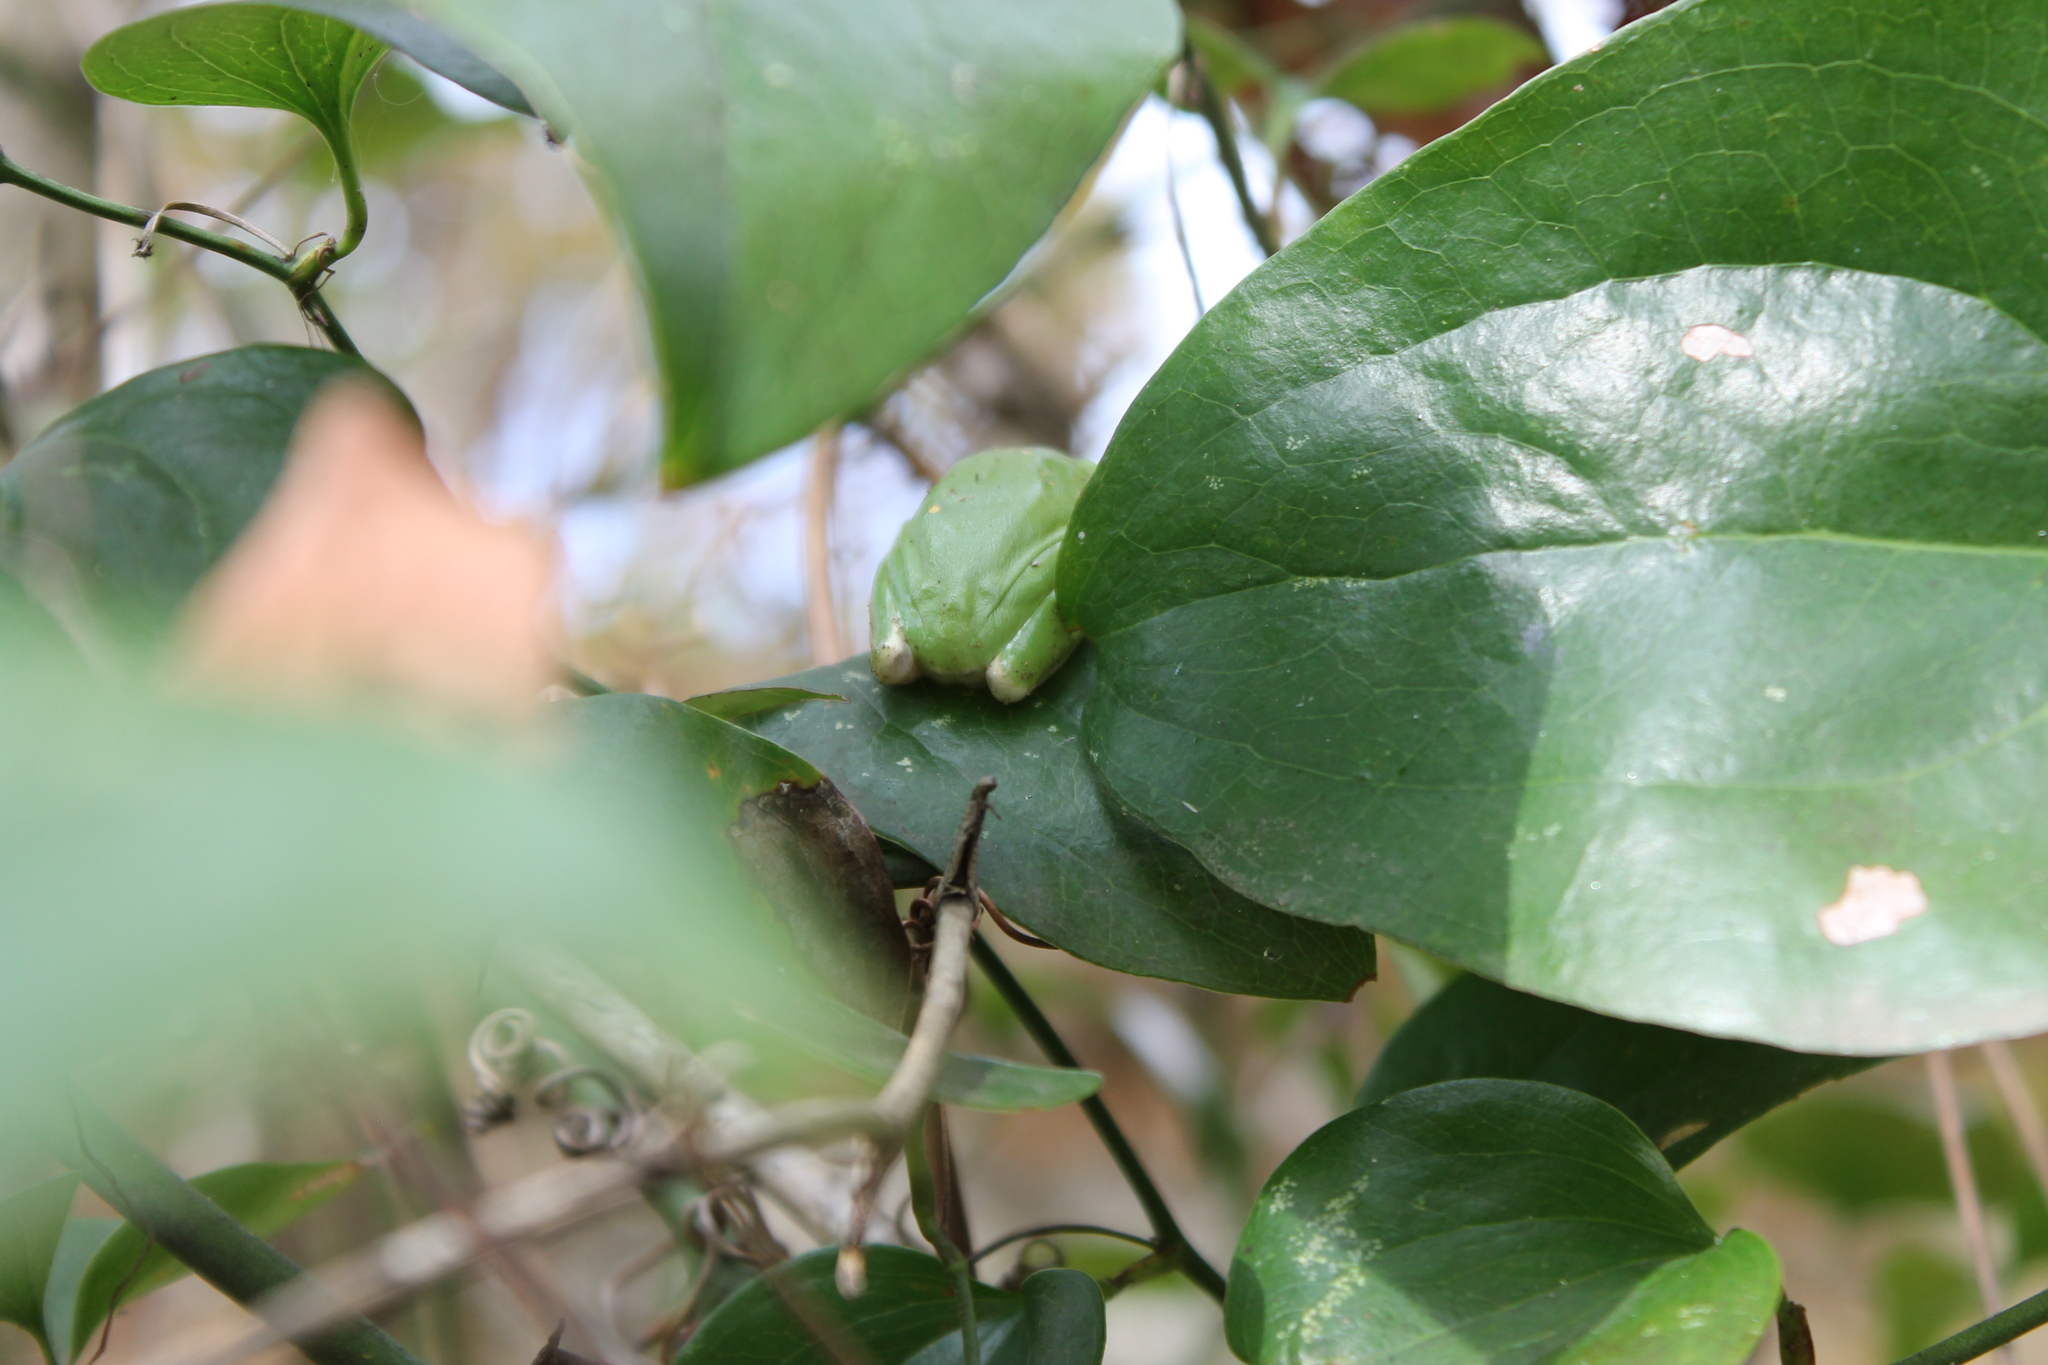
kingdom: Animalia
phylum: Chordata
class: Amphibia
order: Anura
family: Hylidae
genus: Dryophytes
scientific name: Dryophytes cinereus
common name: Green treefrog
